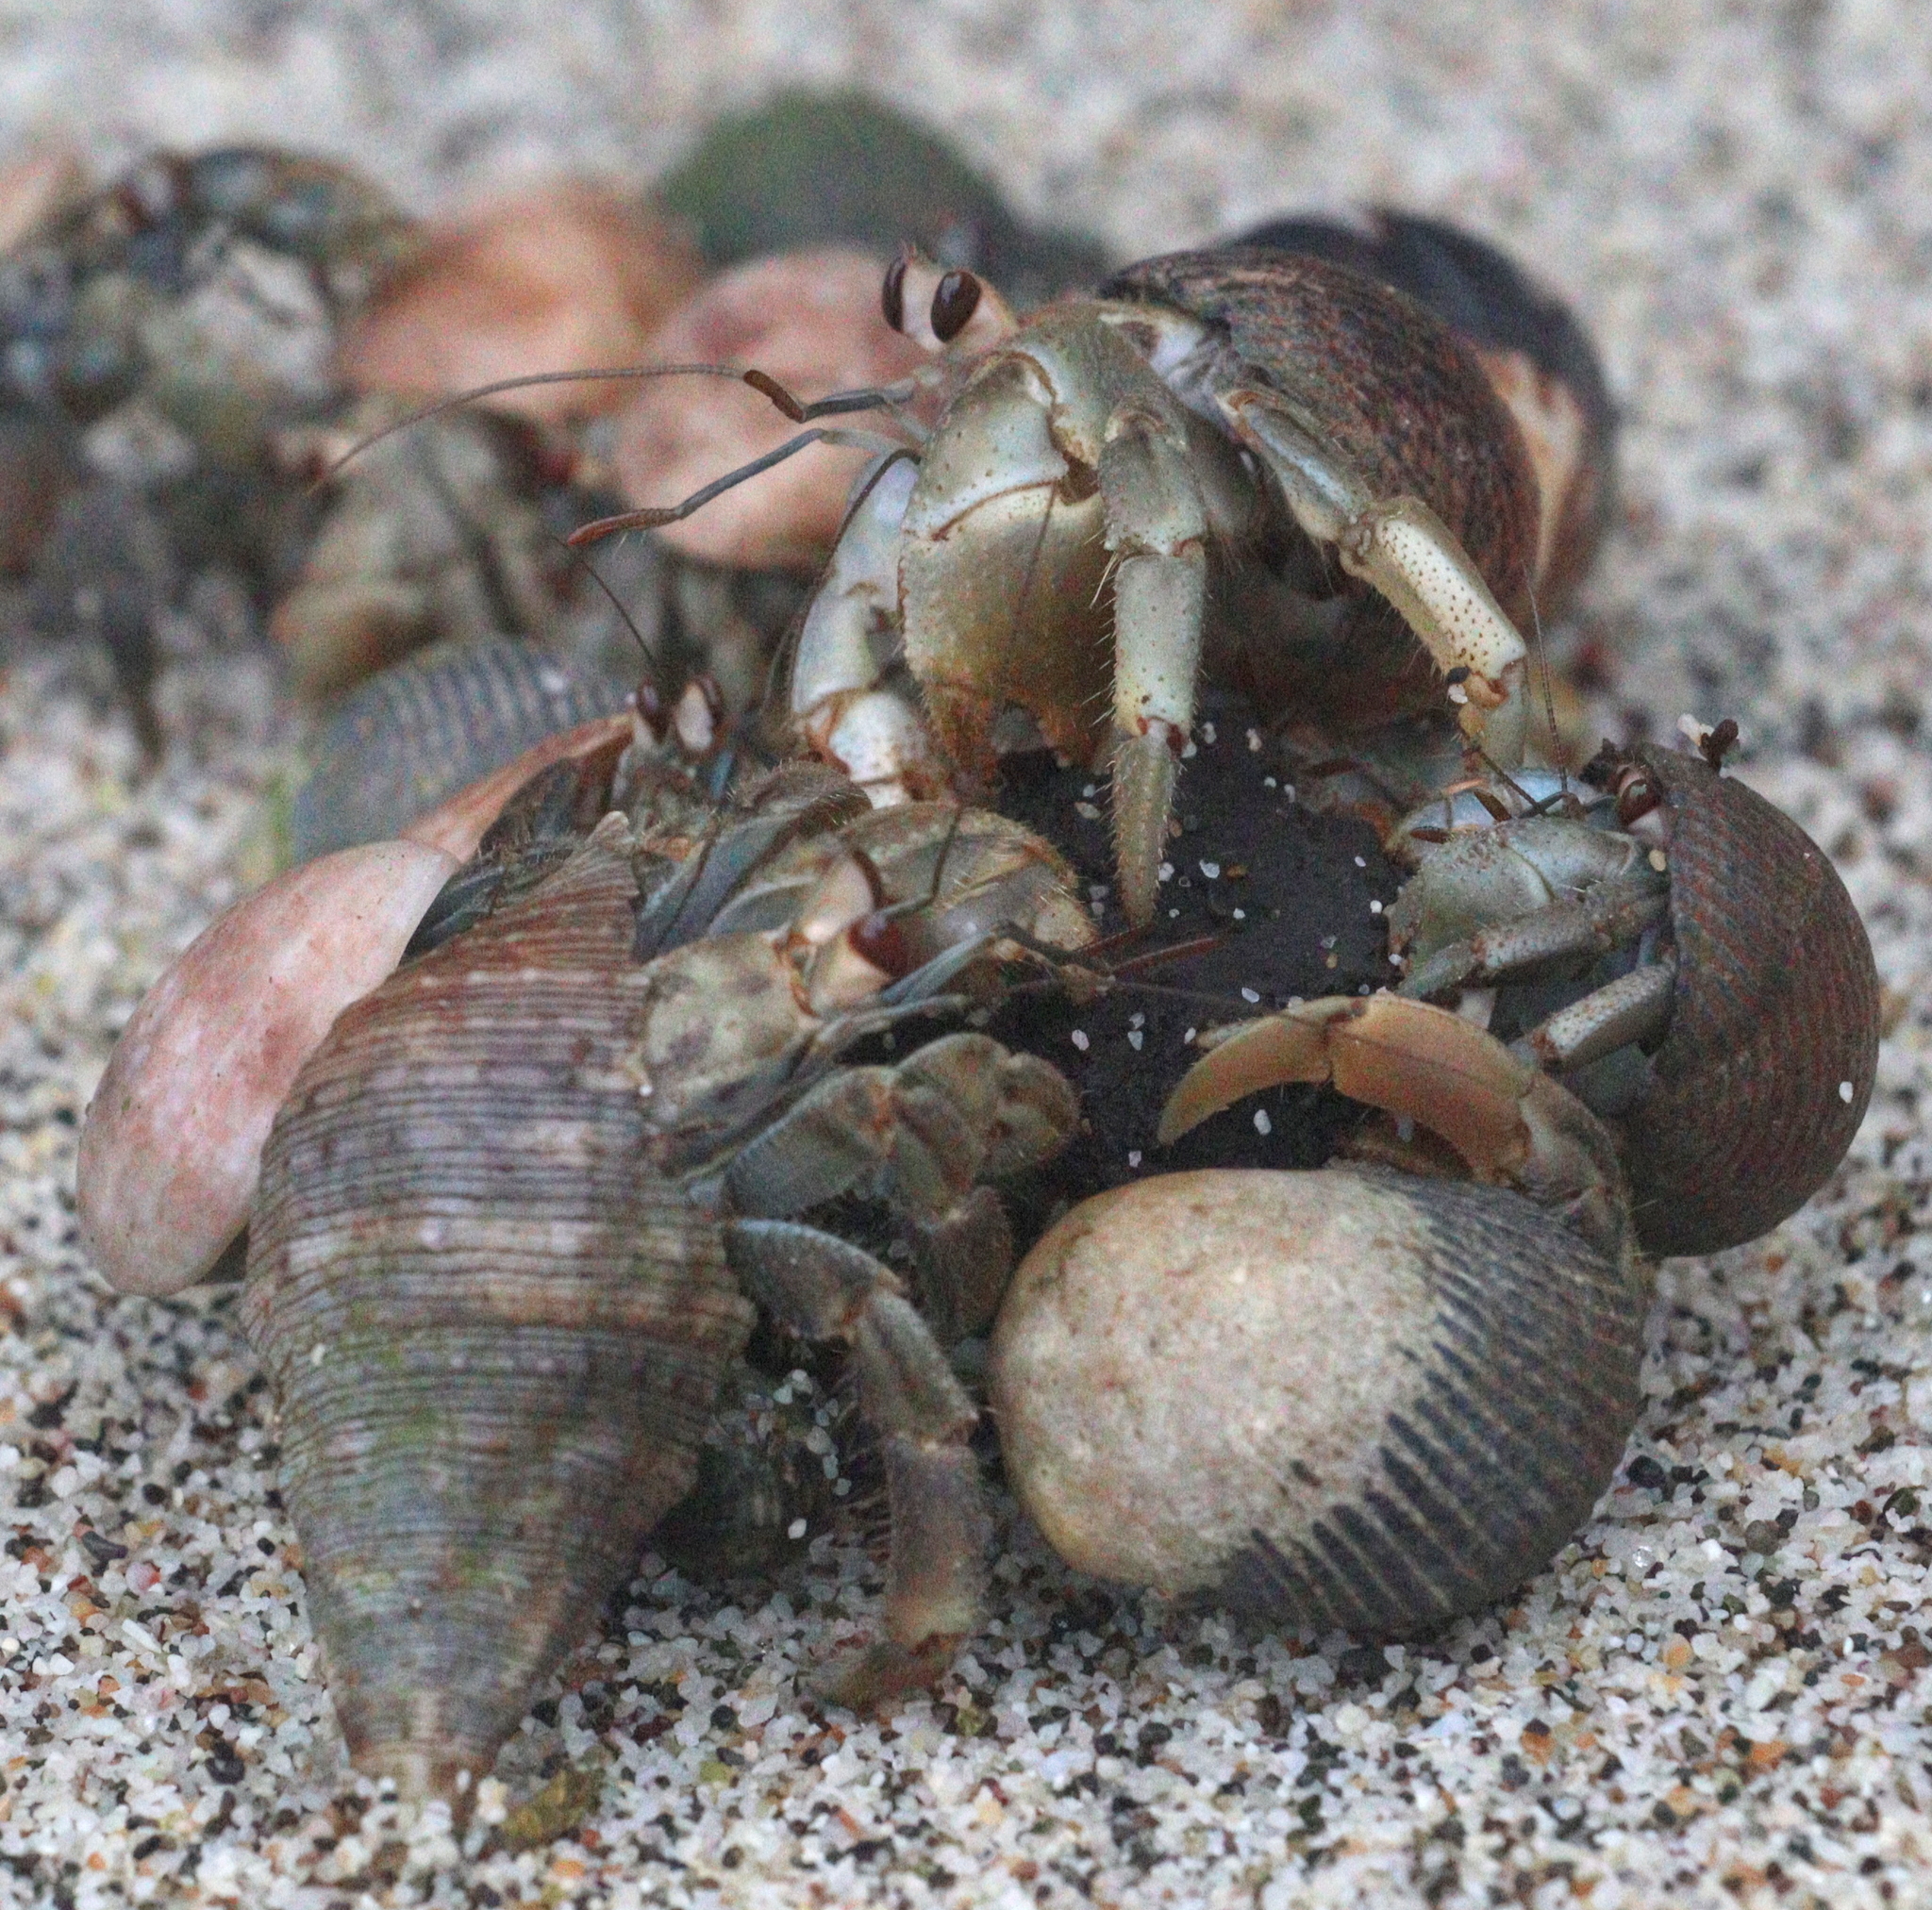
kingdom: Animalia
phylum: Arthropoda
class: Malacostraca
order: Decapoda
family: Coenobitidae
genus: Coenobita
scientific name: Coenobita compressus
